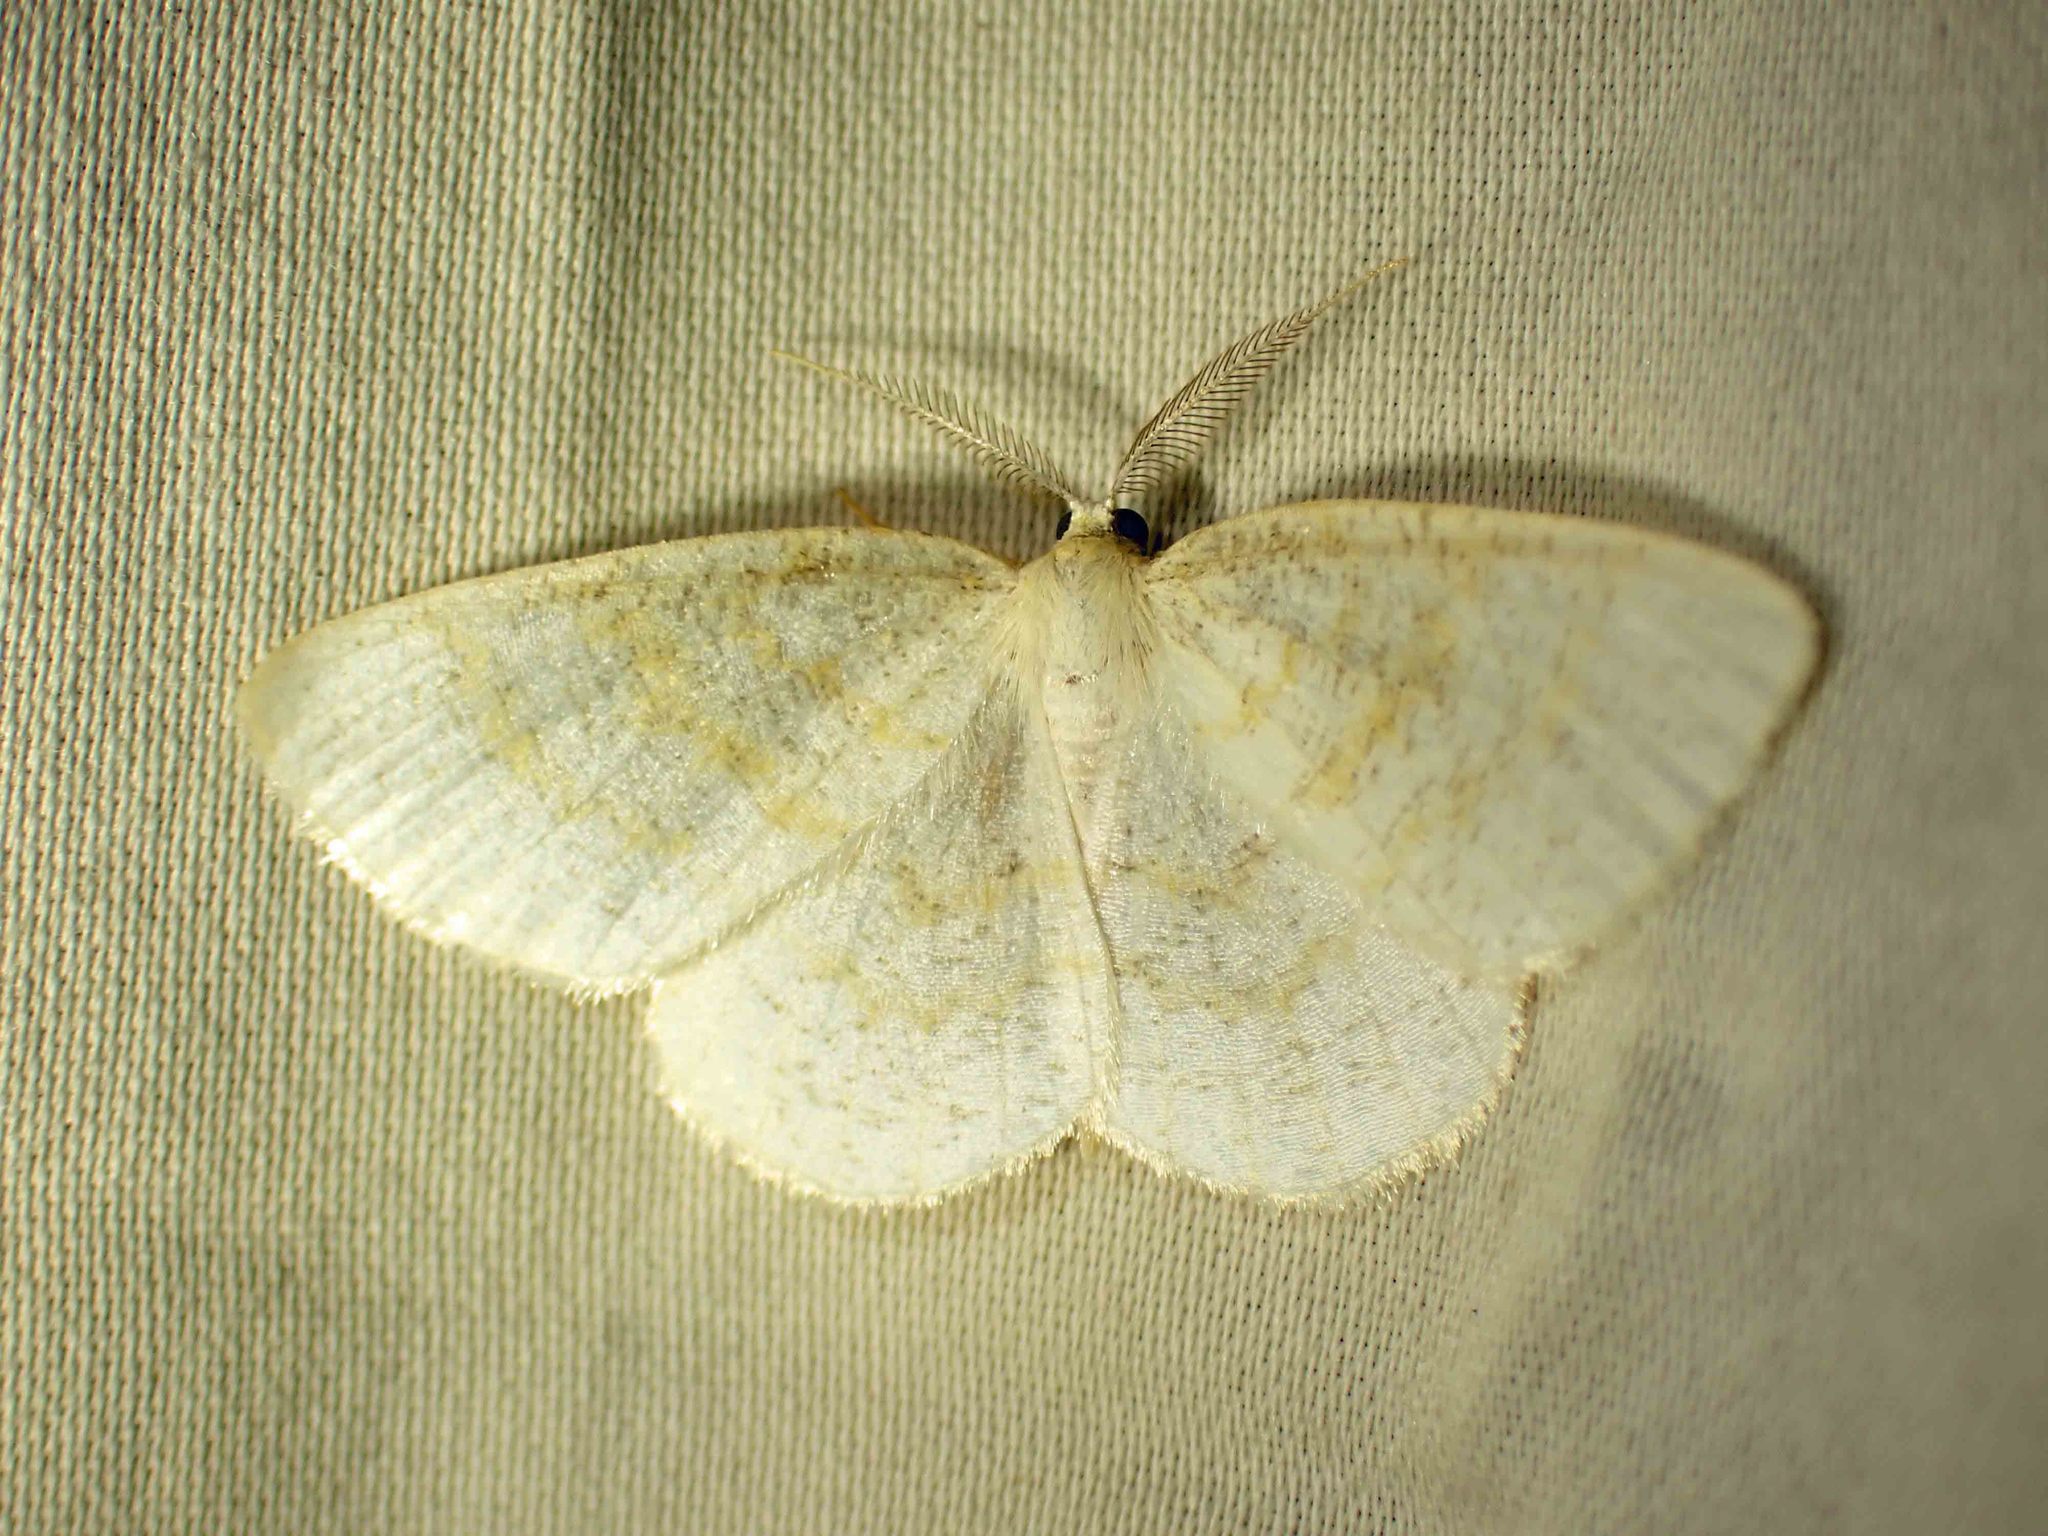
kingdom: Animalia
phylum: Arthropoda
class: Insecta
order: Lepidoptera
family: Geometridae
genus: Cabera
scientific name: Cabera erythemaria
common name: Yellow-dusted cream moth
